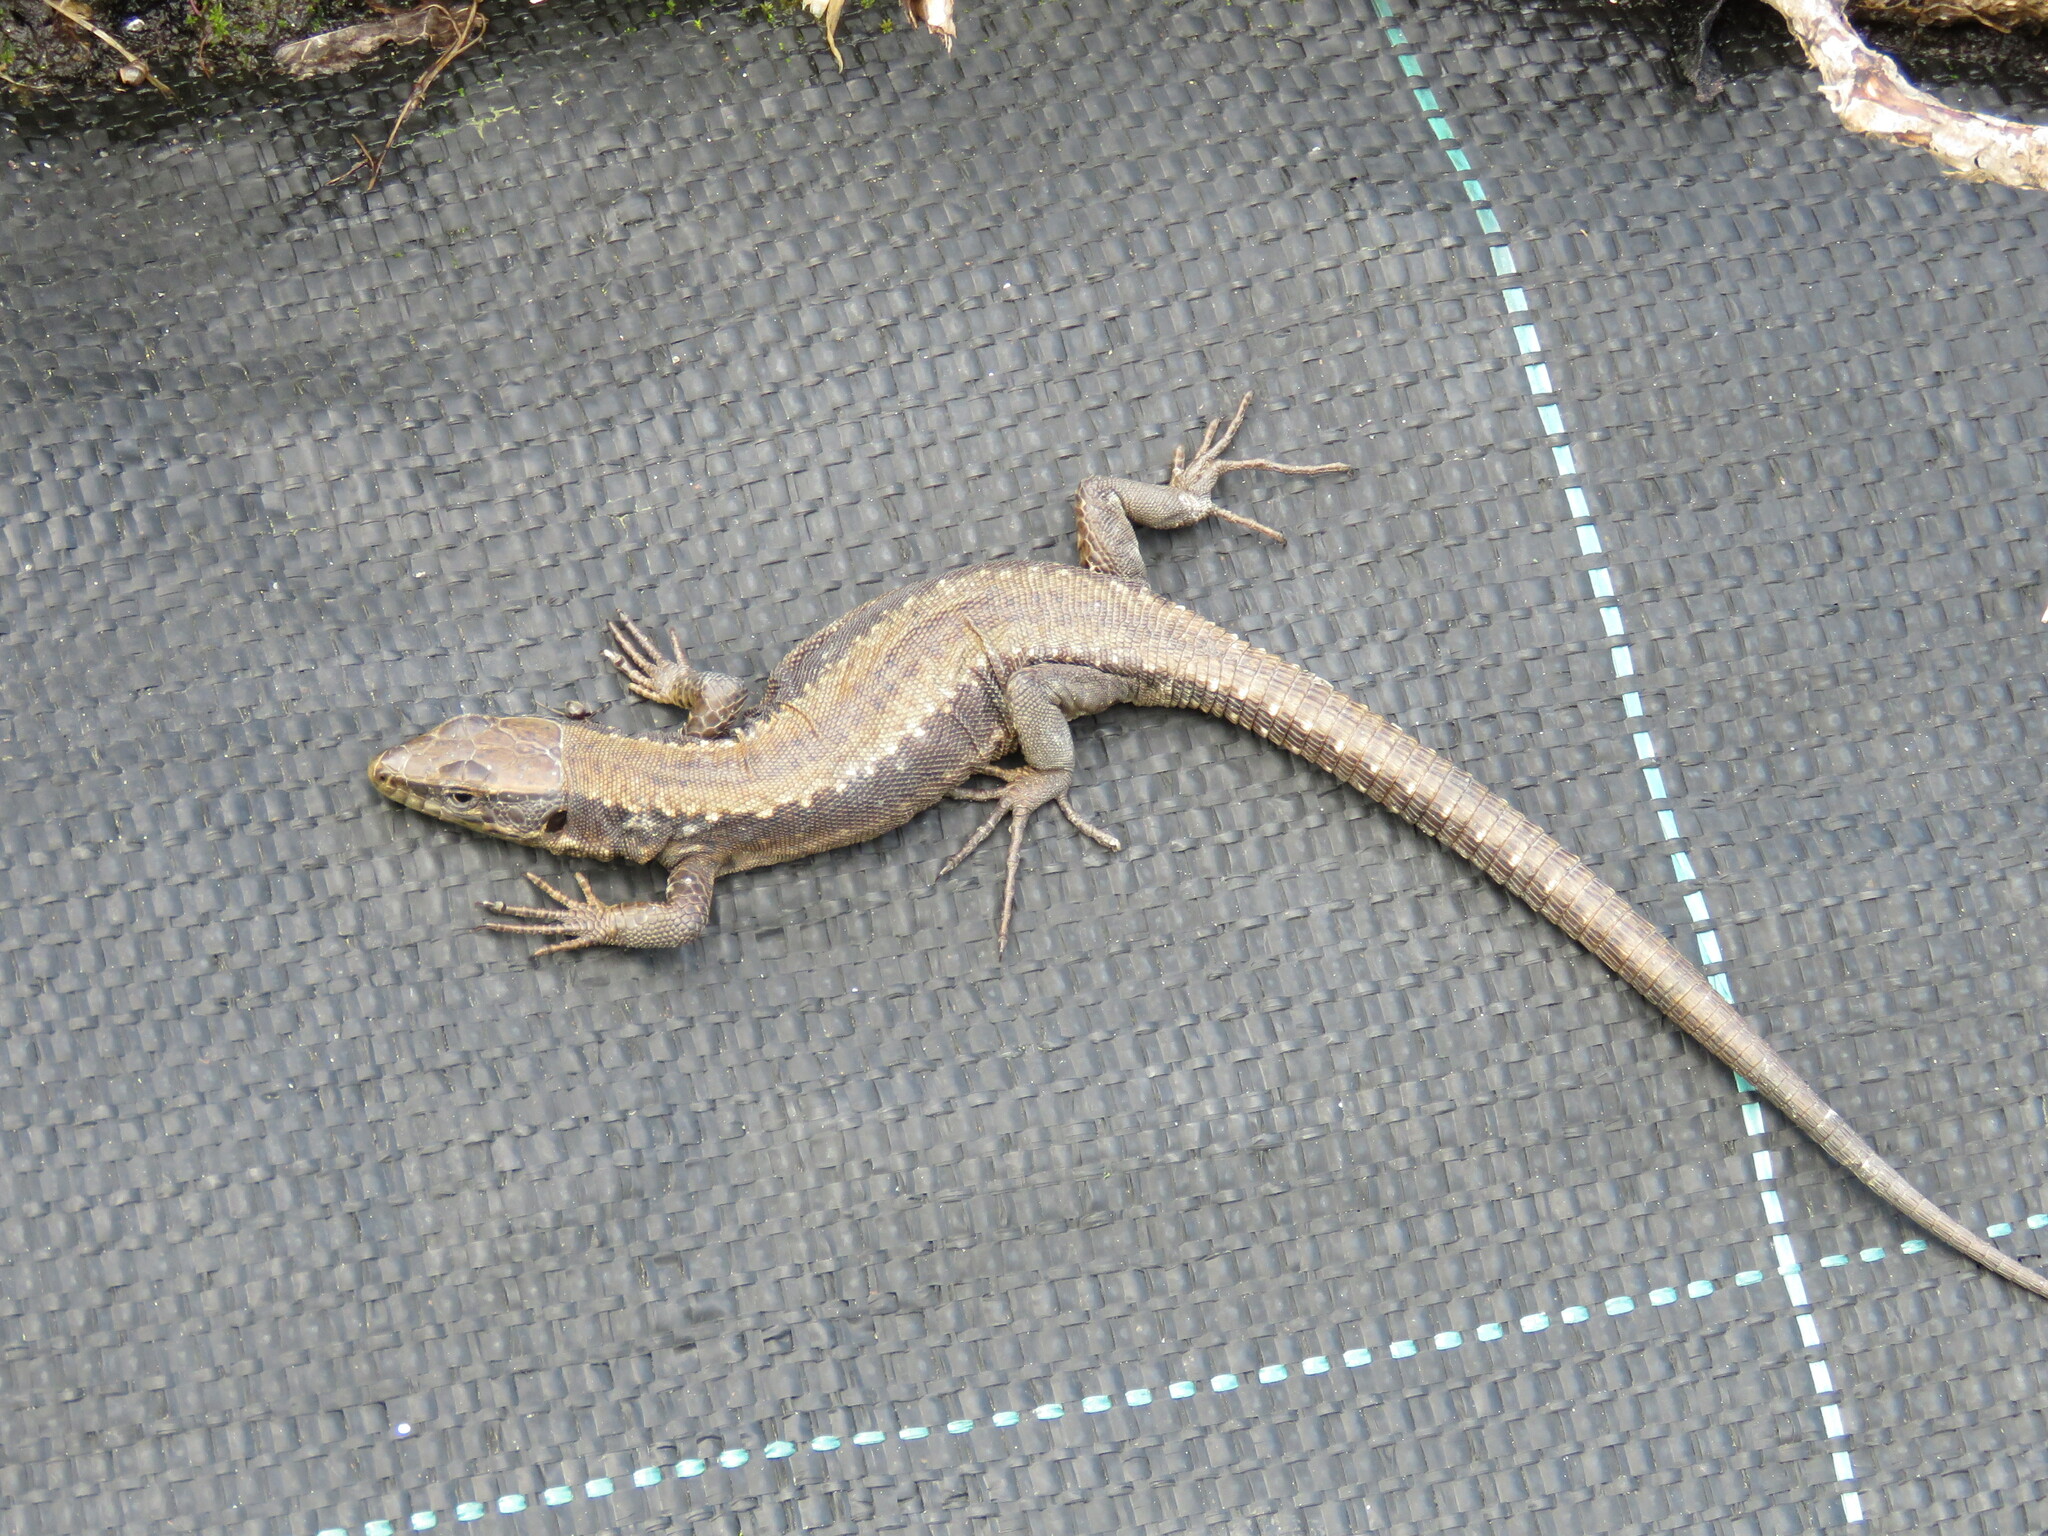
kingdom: Animalia
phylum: Chordata
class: Squamata
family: Lacertidae
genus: Iberolacerta
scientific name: Iberolacerta monticola
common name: Iberian mountain lizard
